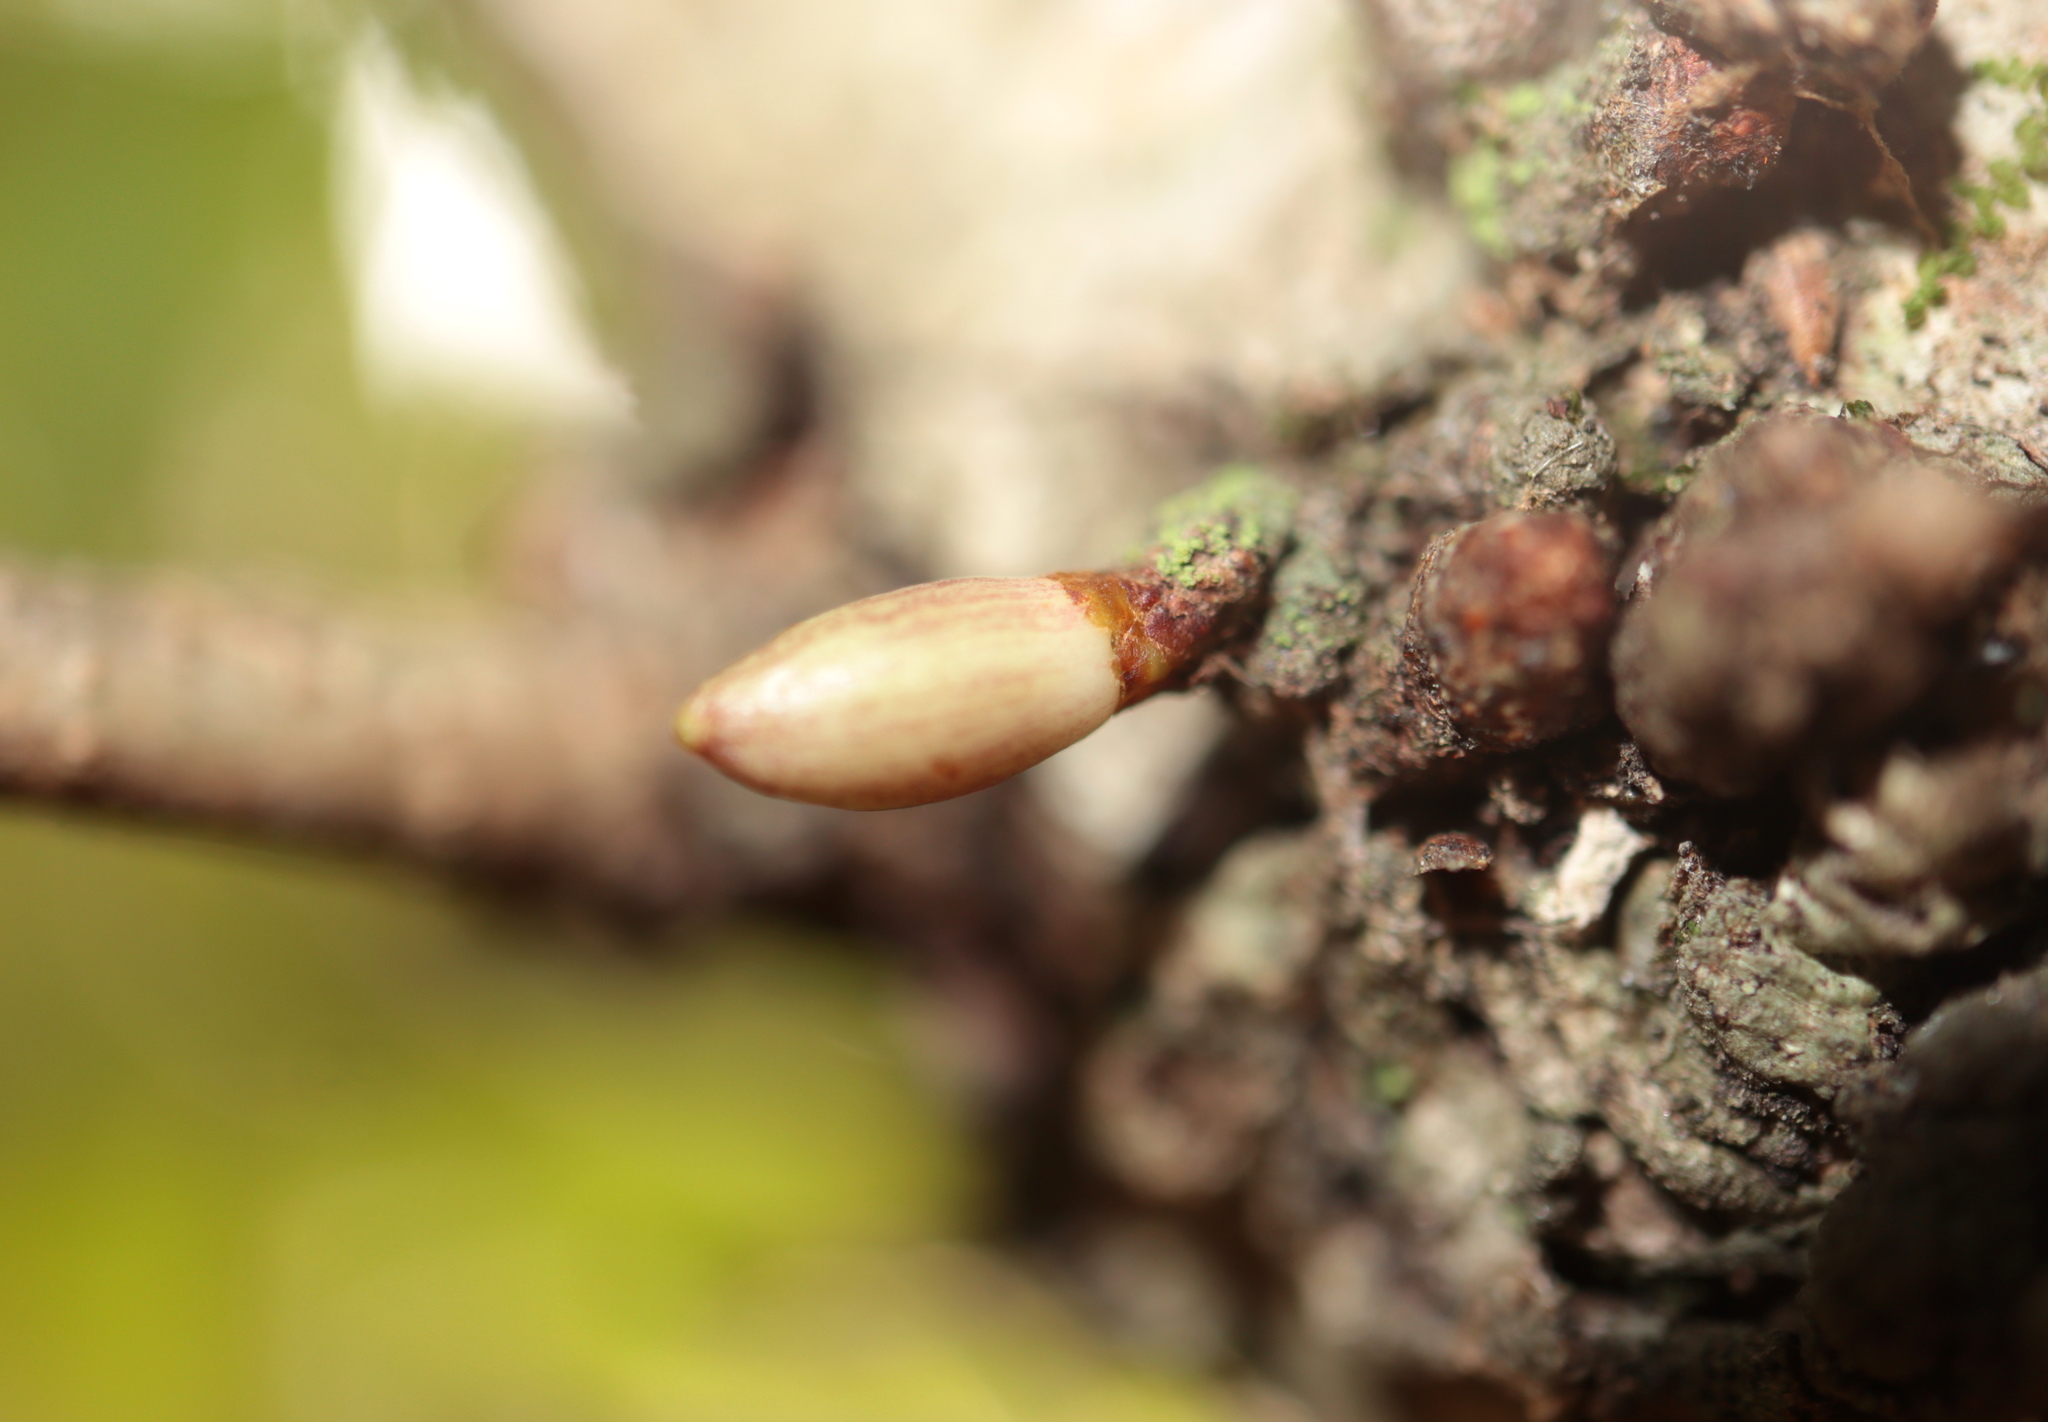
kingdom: Animalia
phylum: Arthropoda
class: Insecta
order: Hymenoptera
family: Cynipidae
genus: Andricus
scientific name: Andricus
